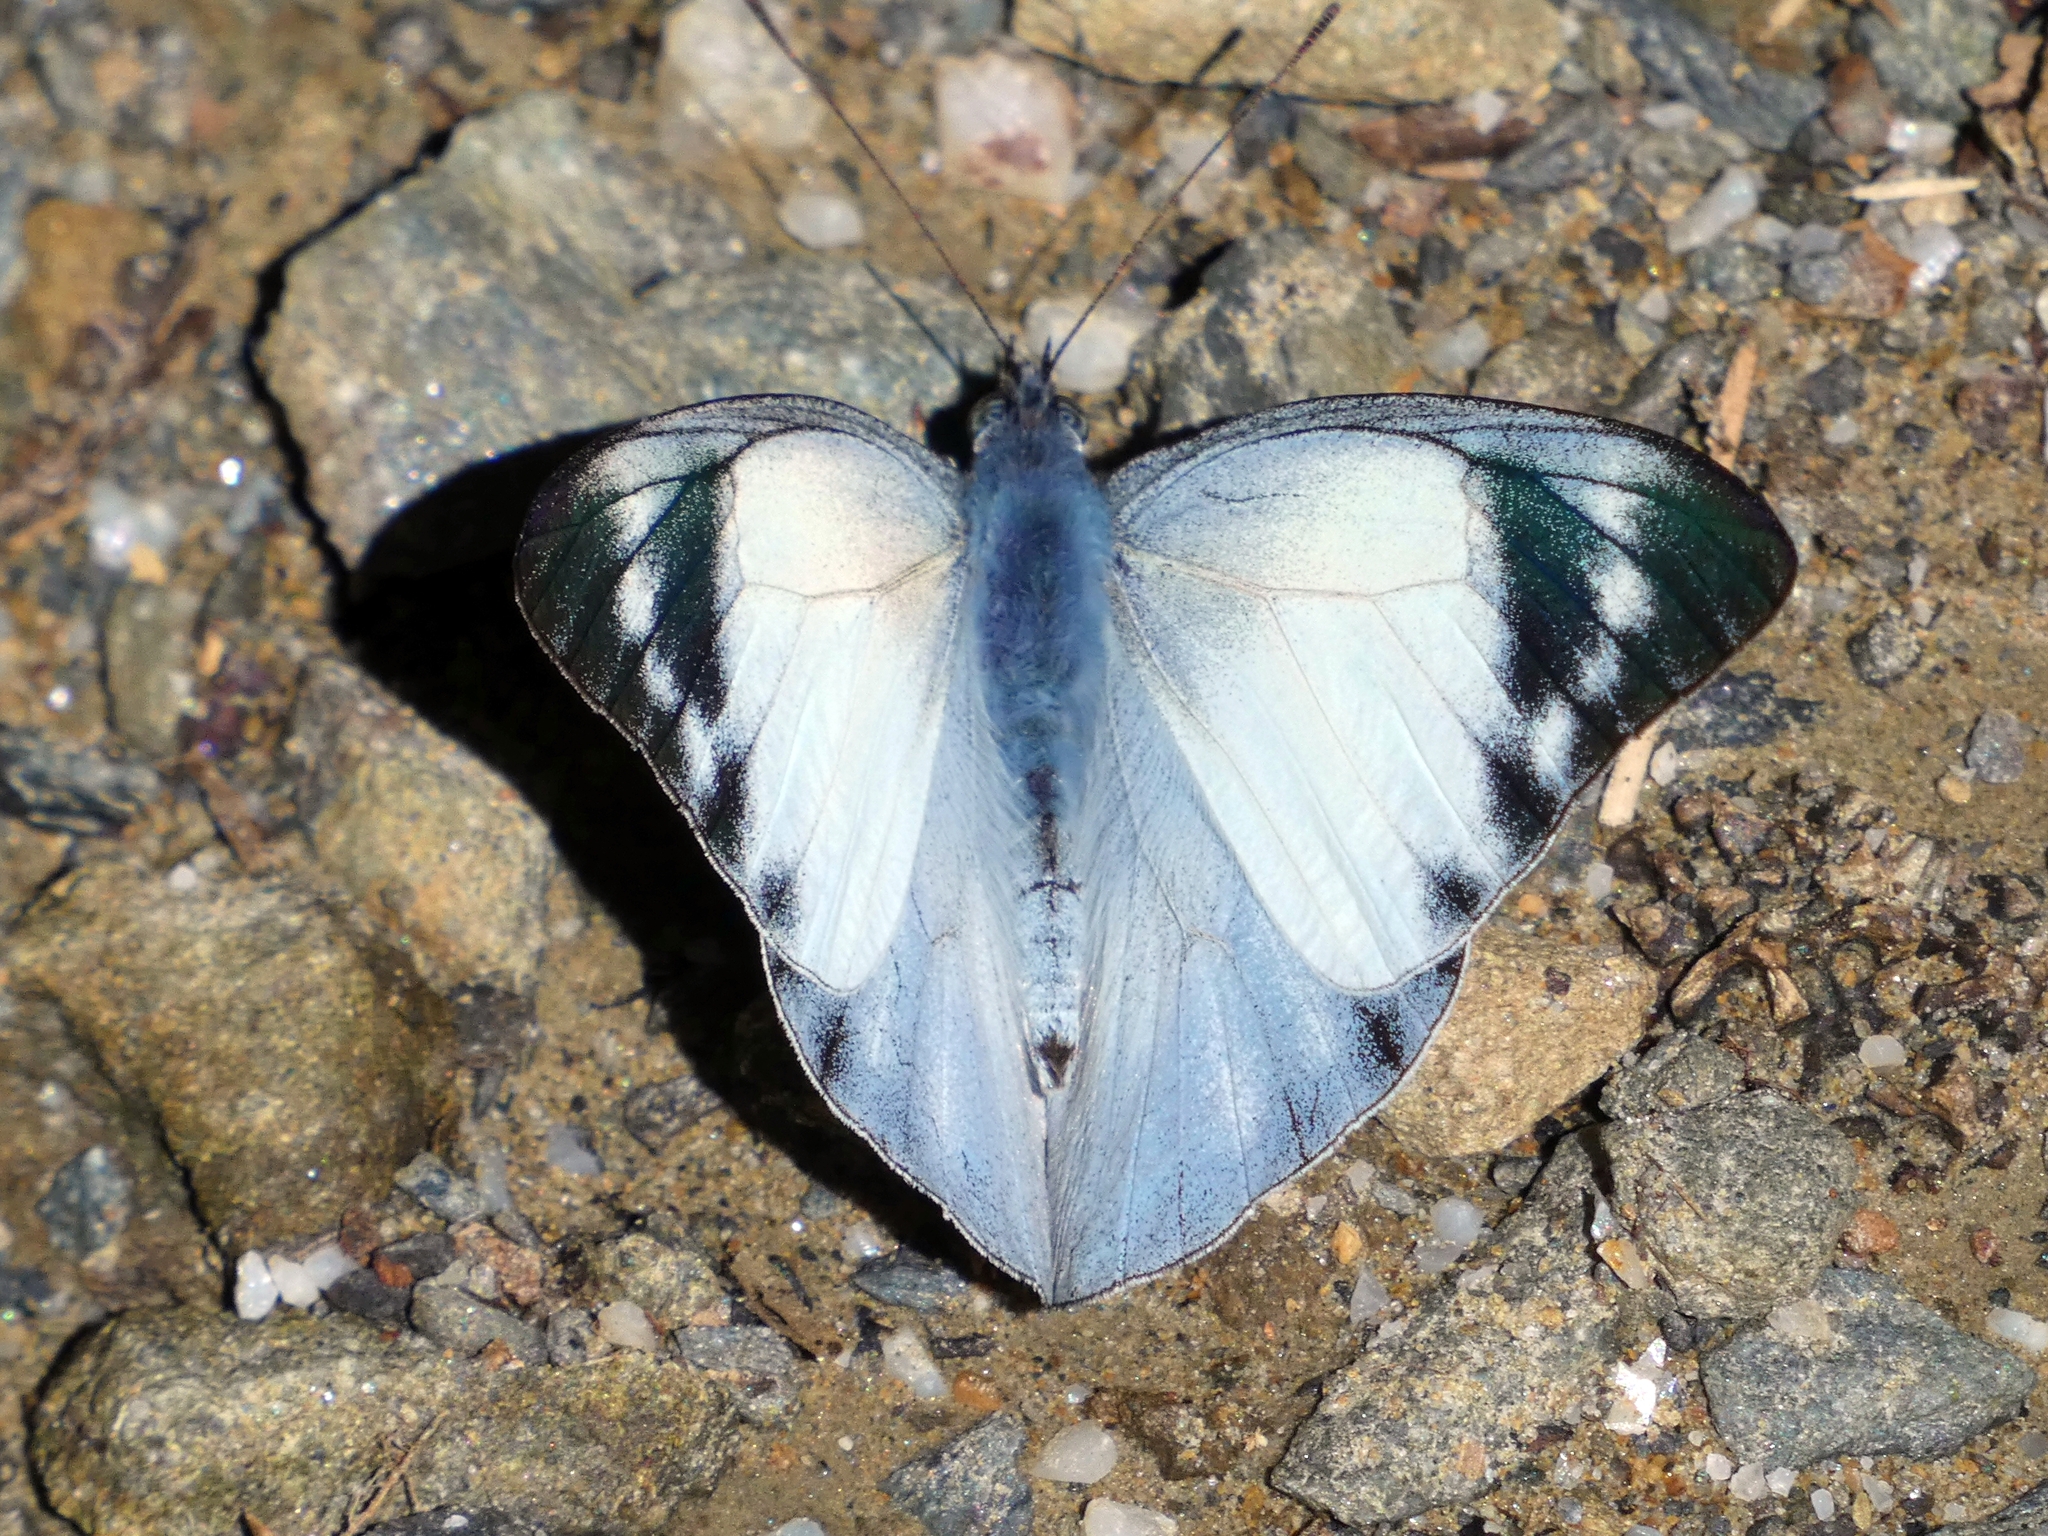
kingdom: Animalia
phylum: Arthropoda
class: Insecta
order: Lepidoptera
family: Pieridae
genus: Appias
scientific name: Appias melania
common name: Grey albatross
